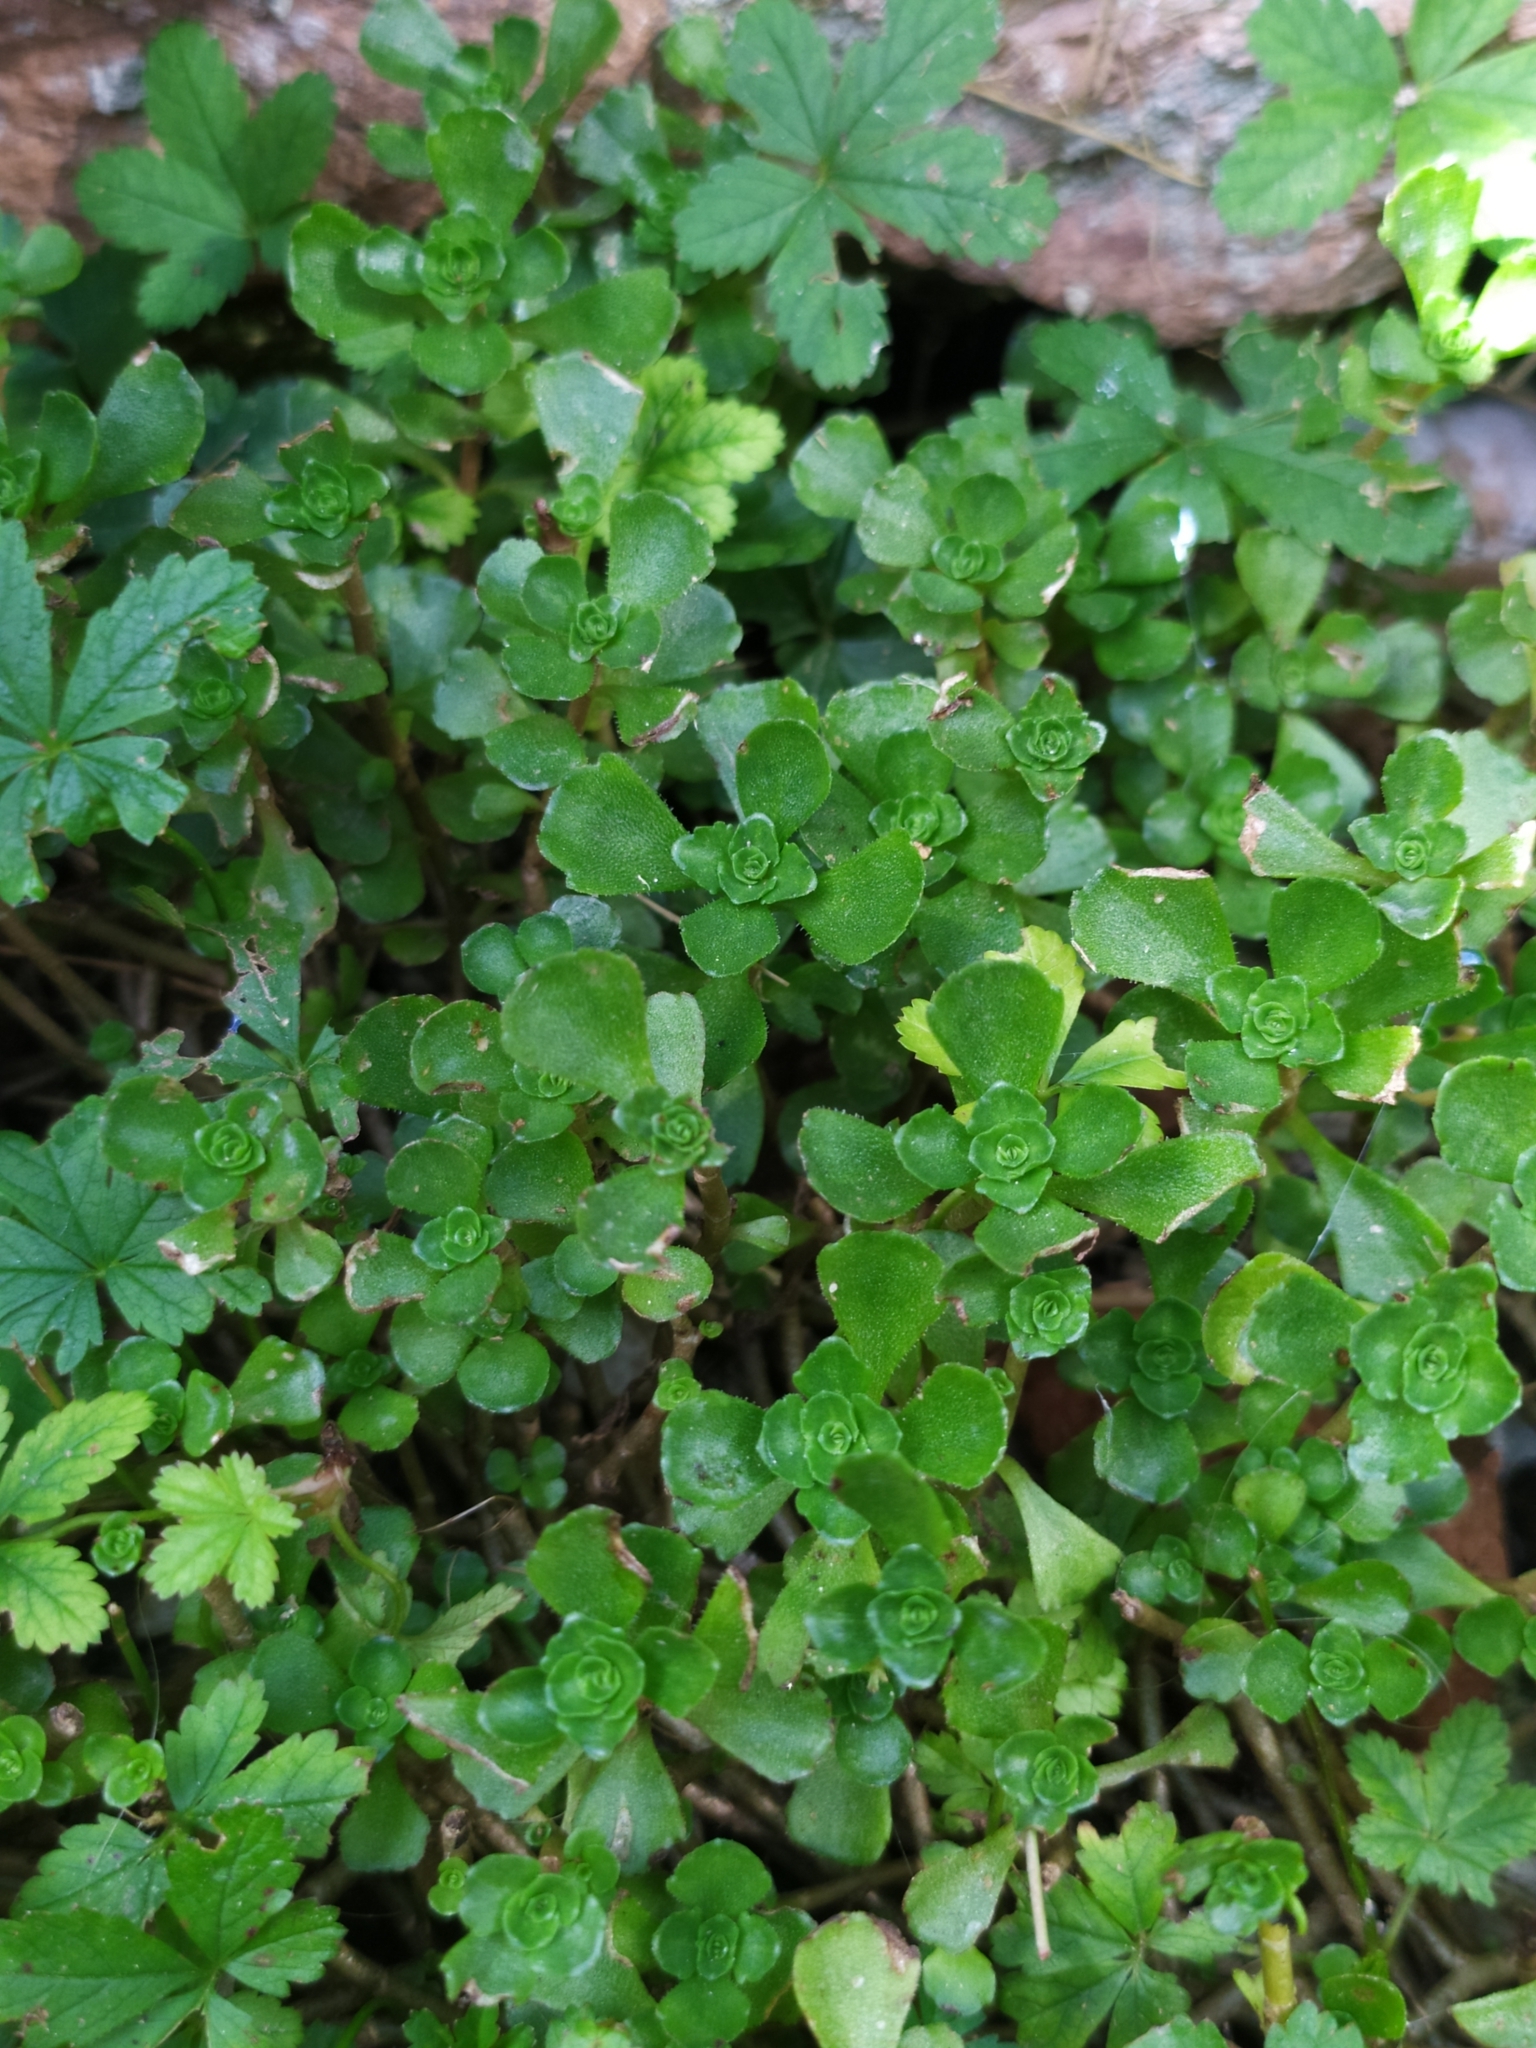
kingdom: Plantae
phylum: Tracheophyta
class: Magnoliopsida
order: Saxifragales
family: Crassulaceae
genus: Phedimus
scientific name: Phedimus spurius
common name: Caucasian stonecrop
